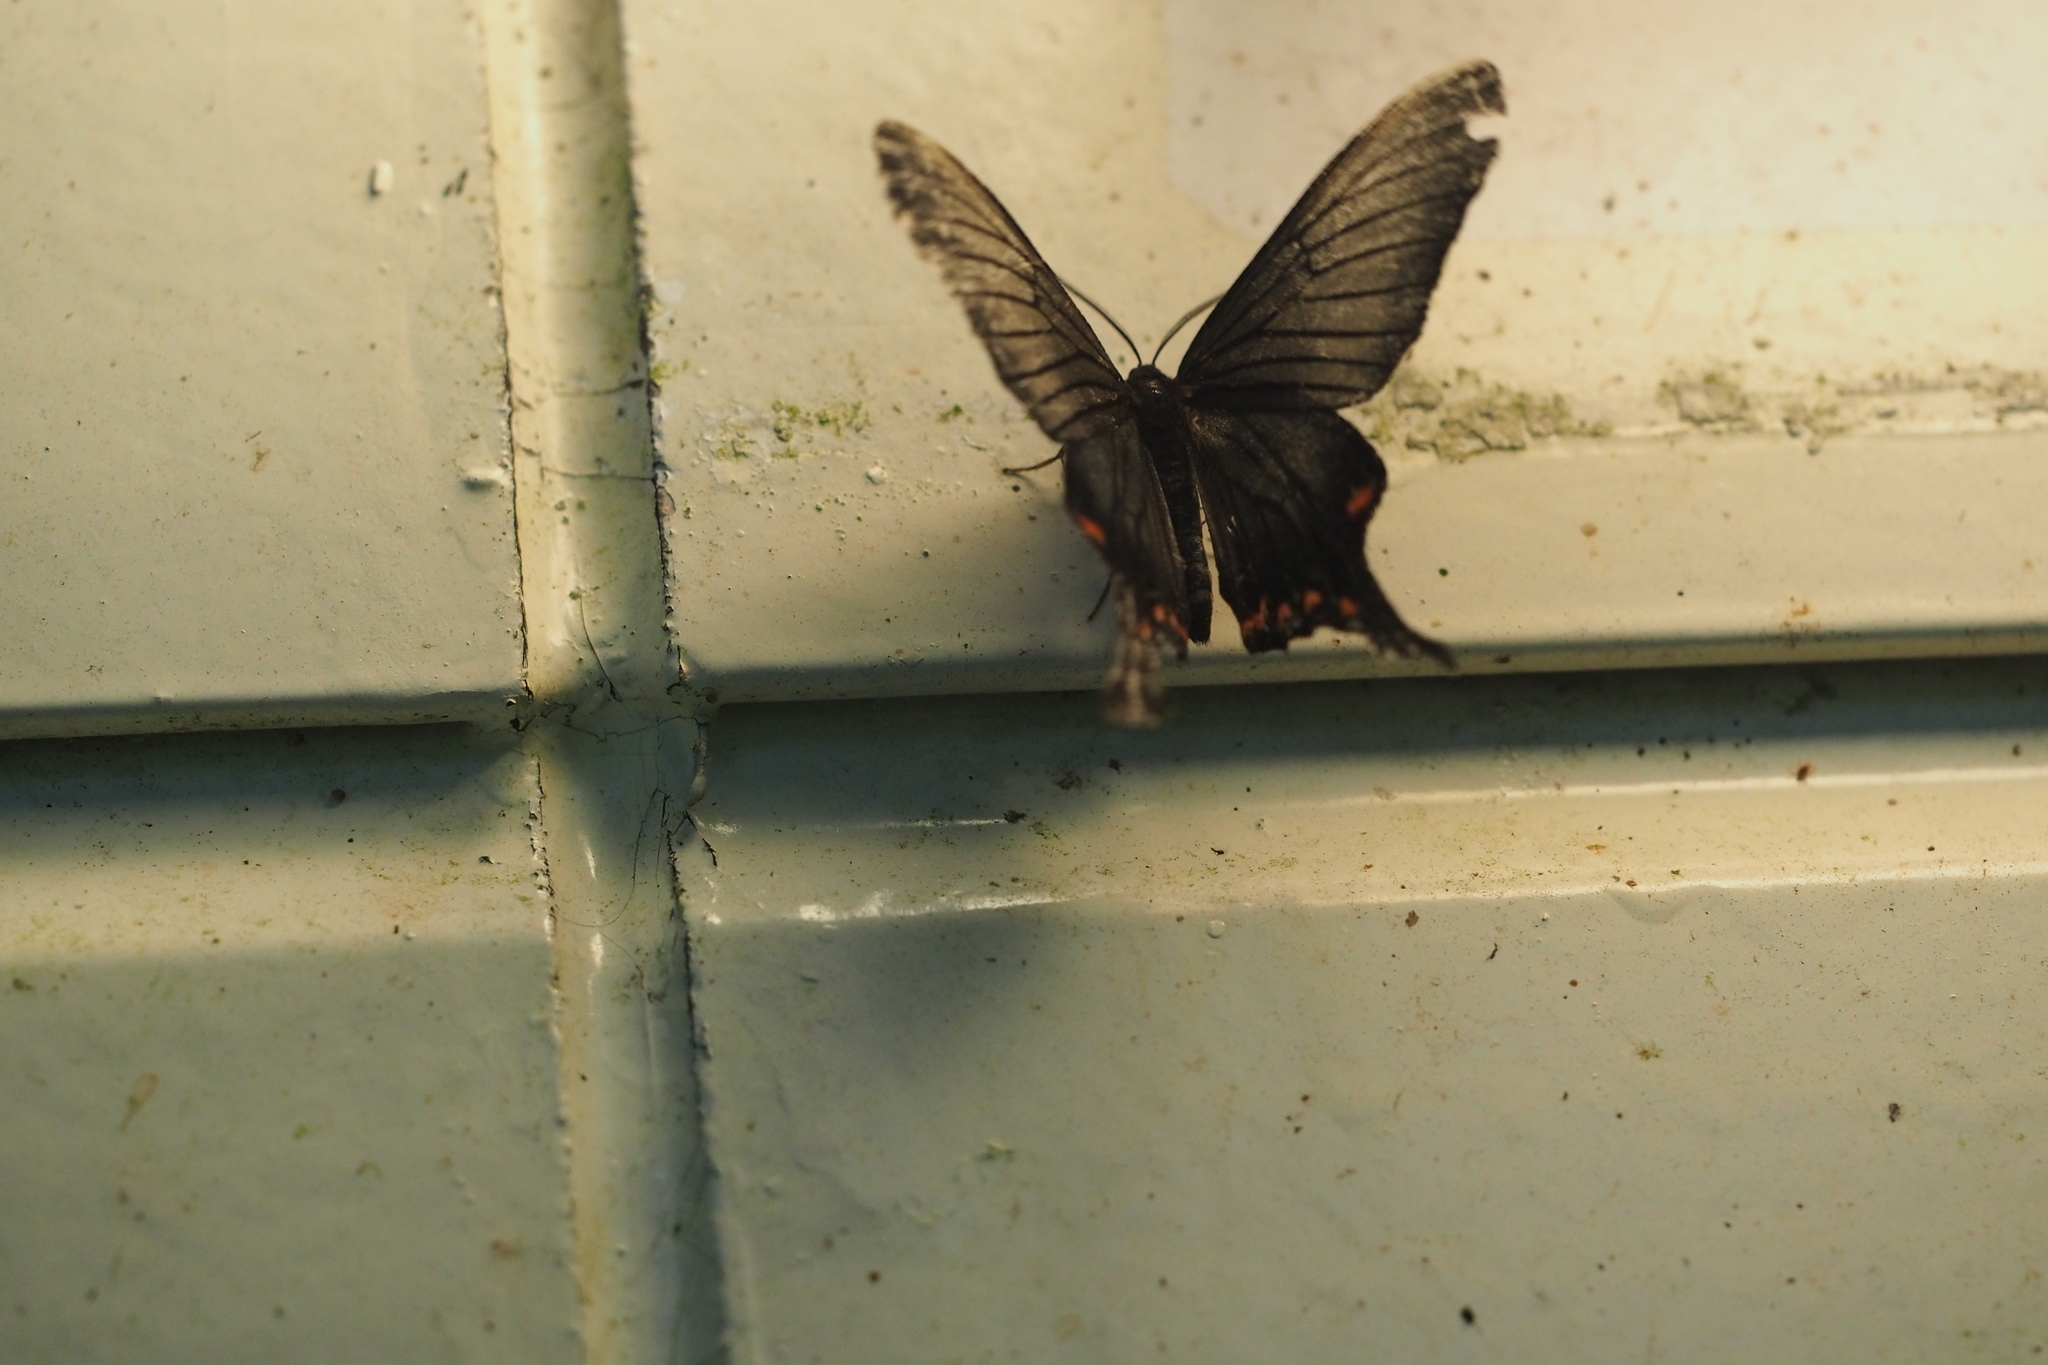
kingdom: Animalia
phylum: Arthropoda
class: Insecta
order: Lepidoptera
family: Epicopeiidae
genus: Epicopeia
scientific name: Epicopeia hainesii
